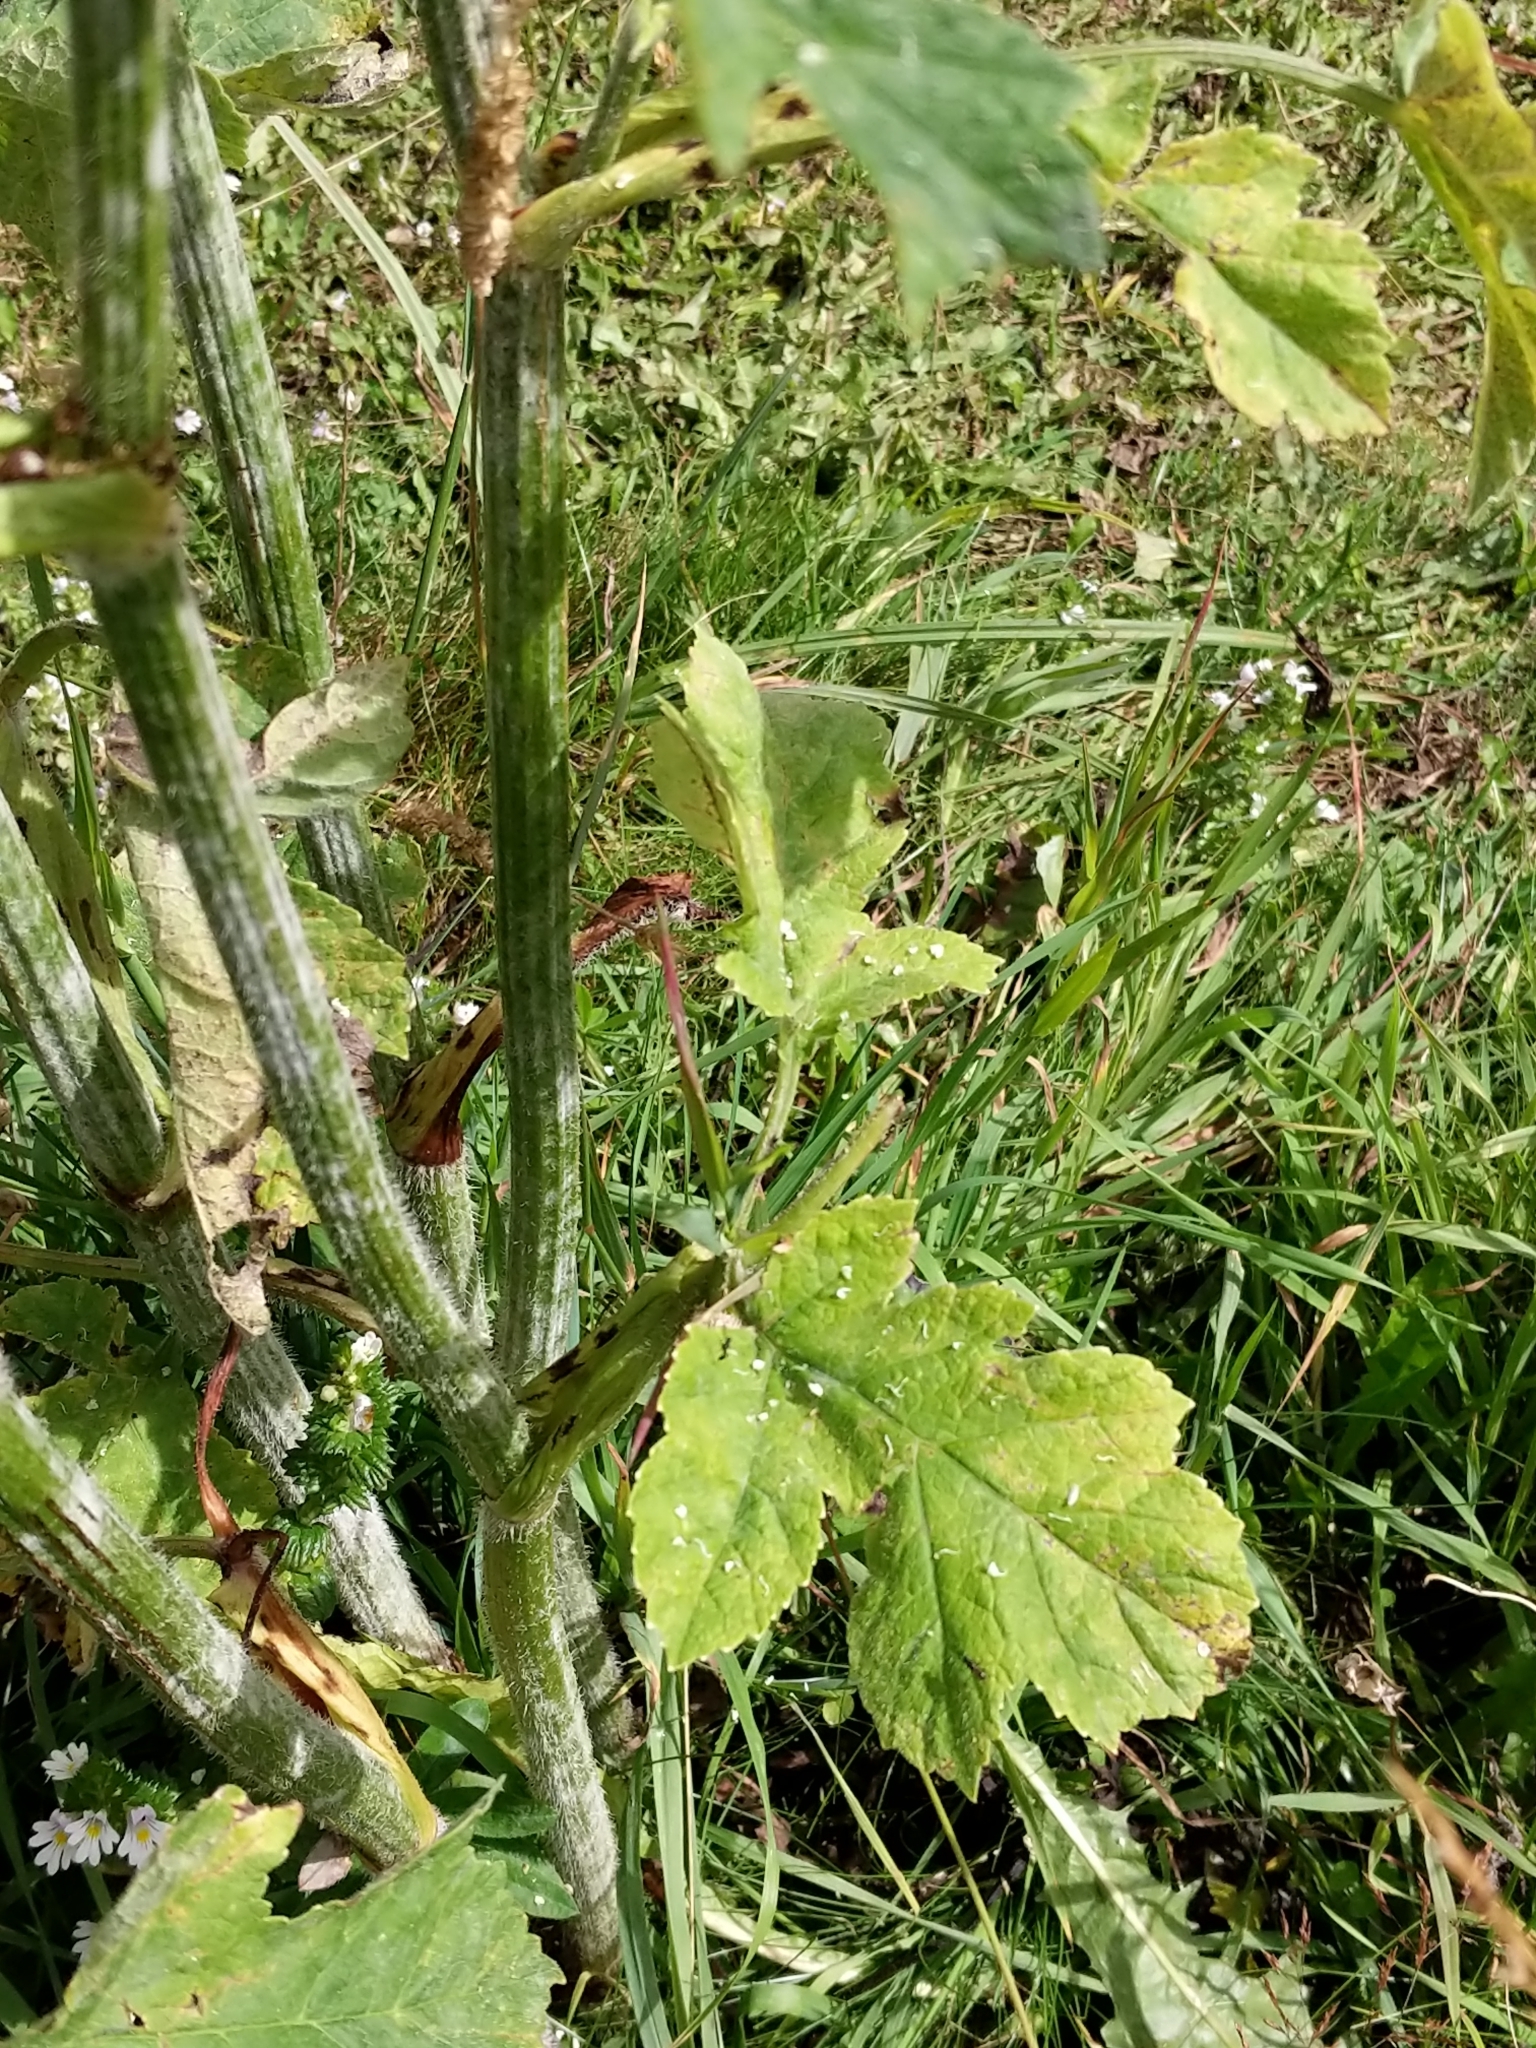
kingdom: Plantae
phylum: Tracheophyta
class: Magnoliopsida
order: Apiales
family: Apiaceae
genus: Heracleum
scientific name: Heracleum sphondylium
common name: Hogweed
